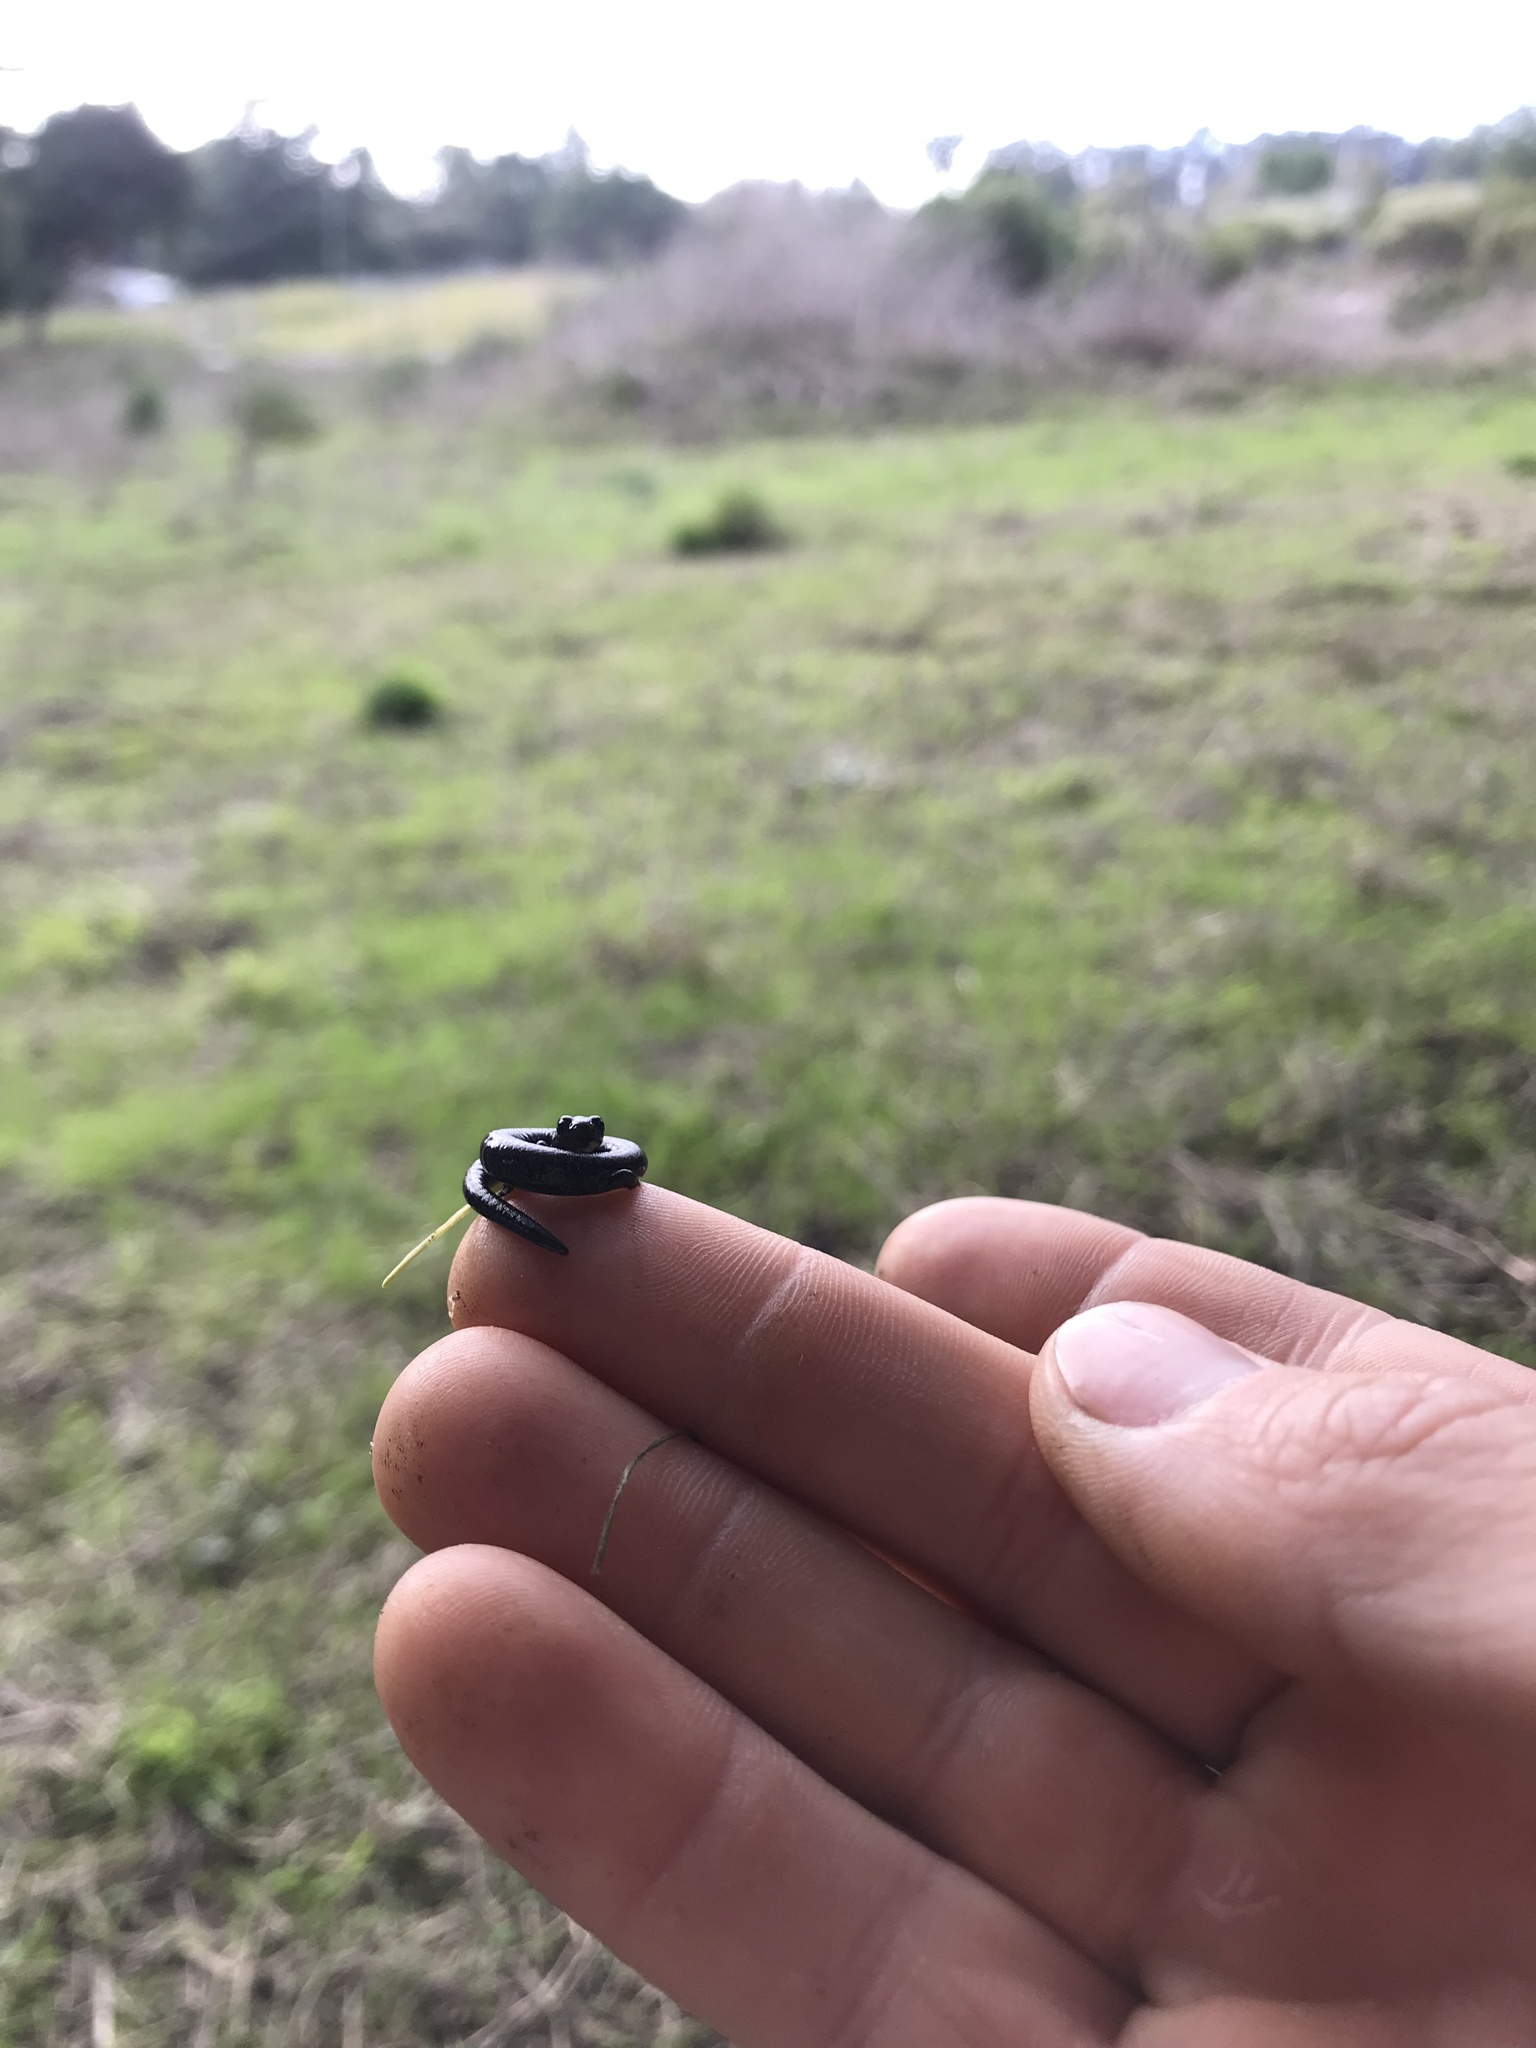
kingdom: Animalia
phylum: Chordata
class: Amphibia
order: Caudata
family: Plethodontidae
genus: Batrachoseps
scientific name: Batrachoseps attenuatus
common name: California slender salamander
